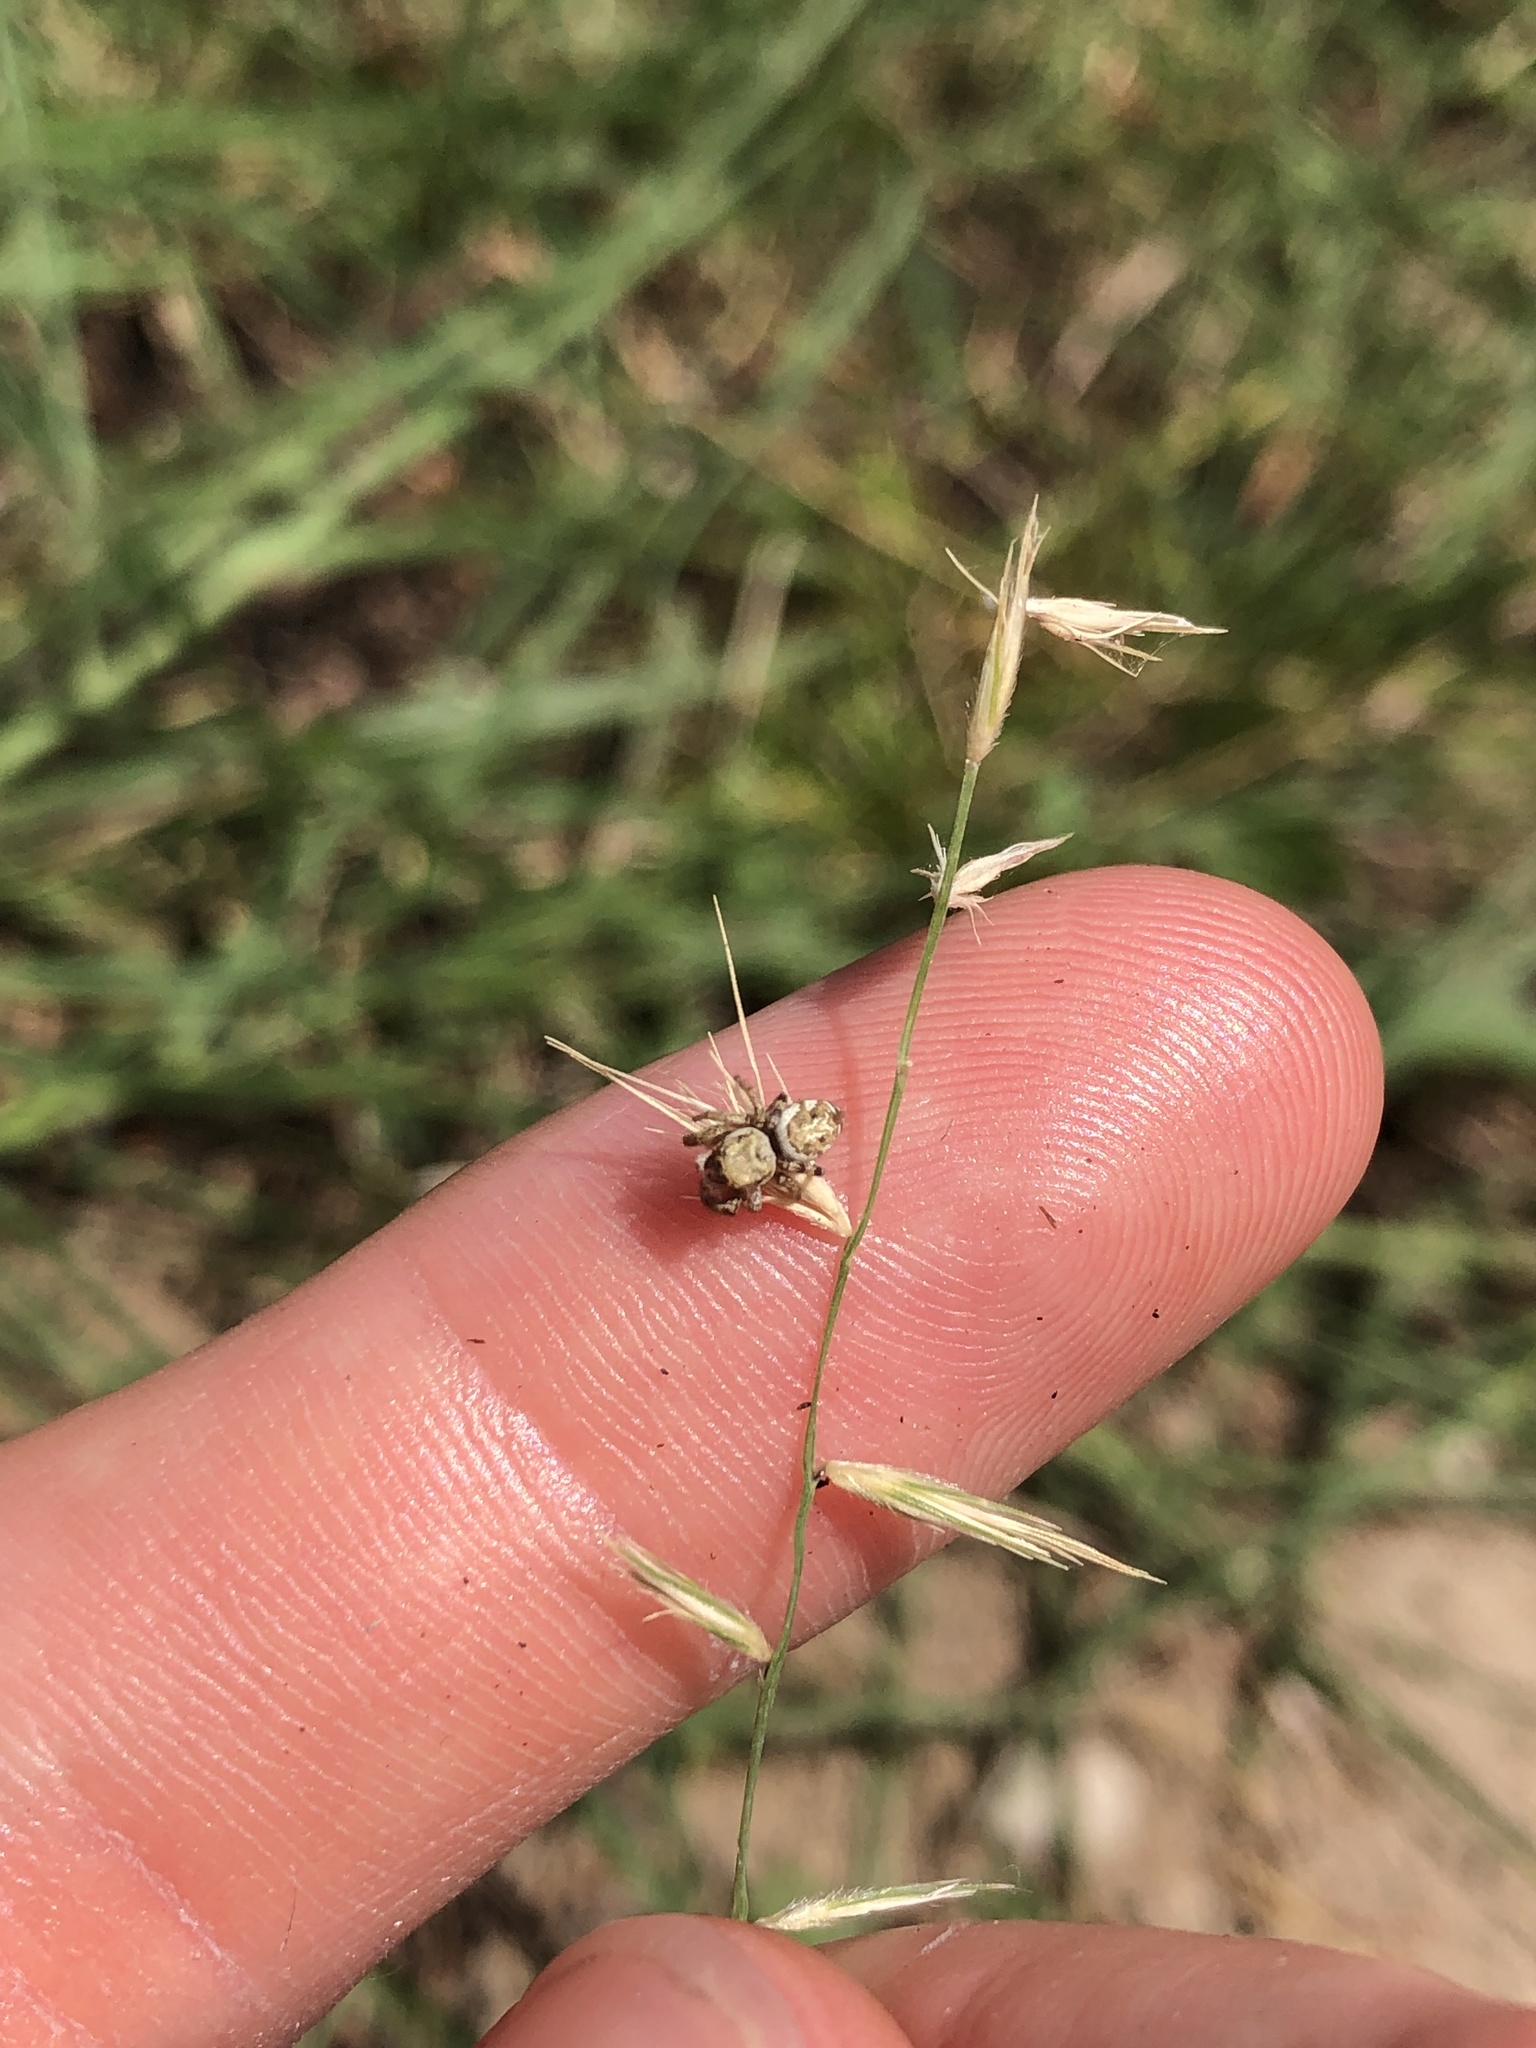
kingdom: Plantae
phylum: Tracheophyta
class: Liliopsida
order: Poales
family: Poaceae
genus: Bouteloua
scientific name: Bouteloua rigidiseta
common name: Texas grama
